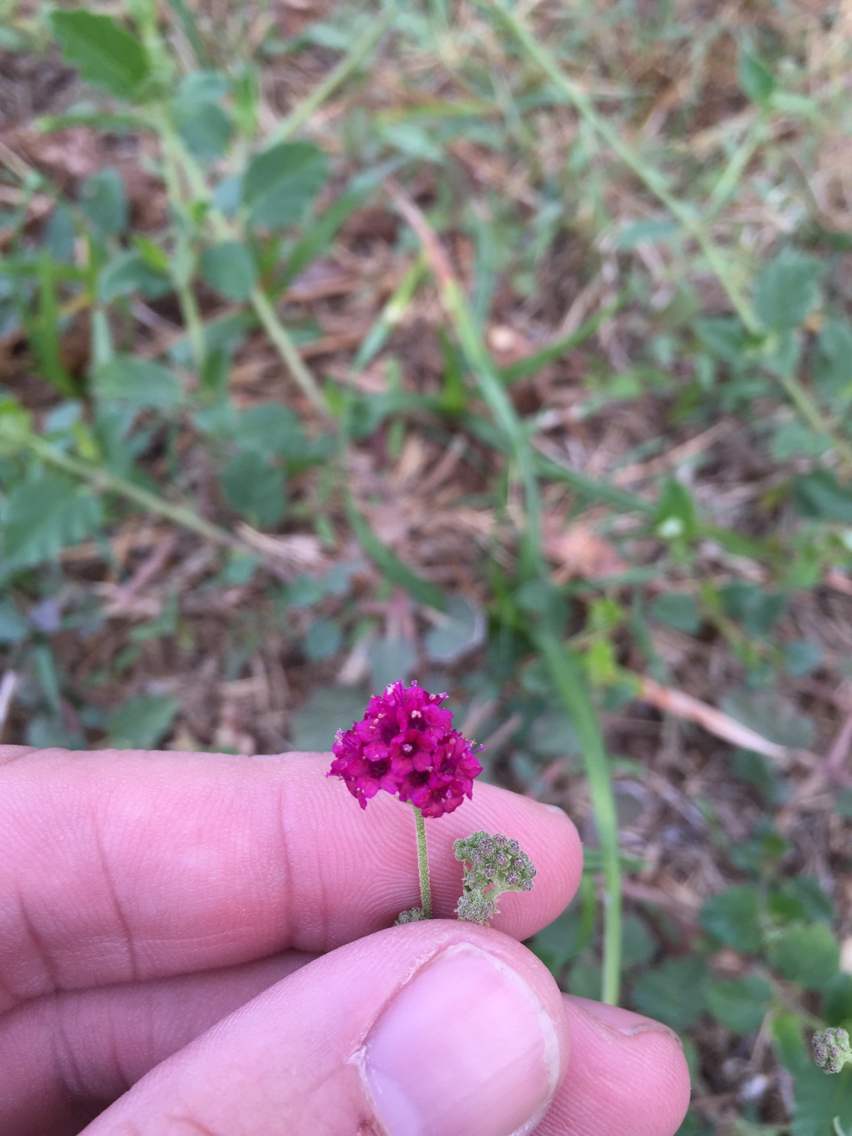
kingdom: Plantae
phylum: Tracheophyta
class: Magnoliopsida
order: Caryophyllales
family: Nyctaginaceae
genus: Boerhavia
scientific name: Boerhavia coccinea
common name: Scarlet spiderling
